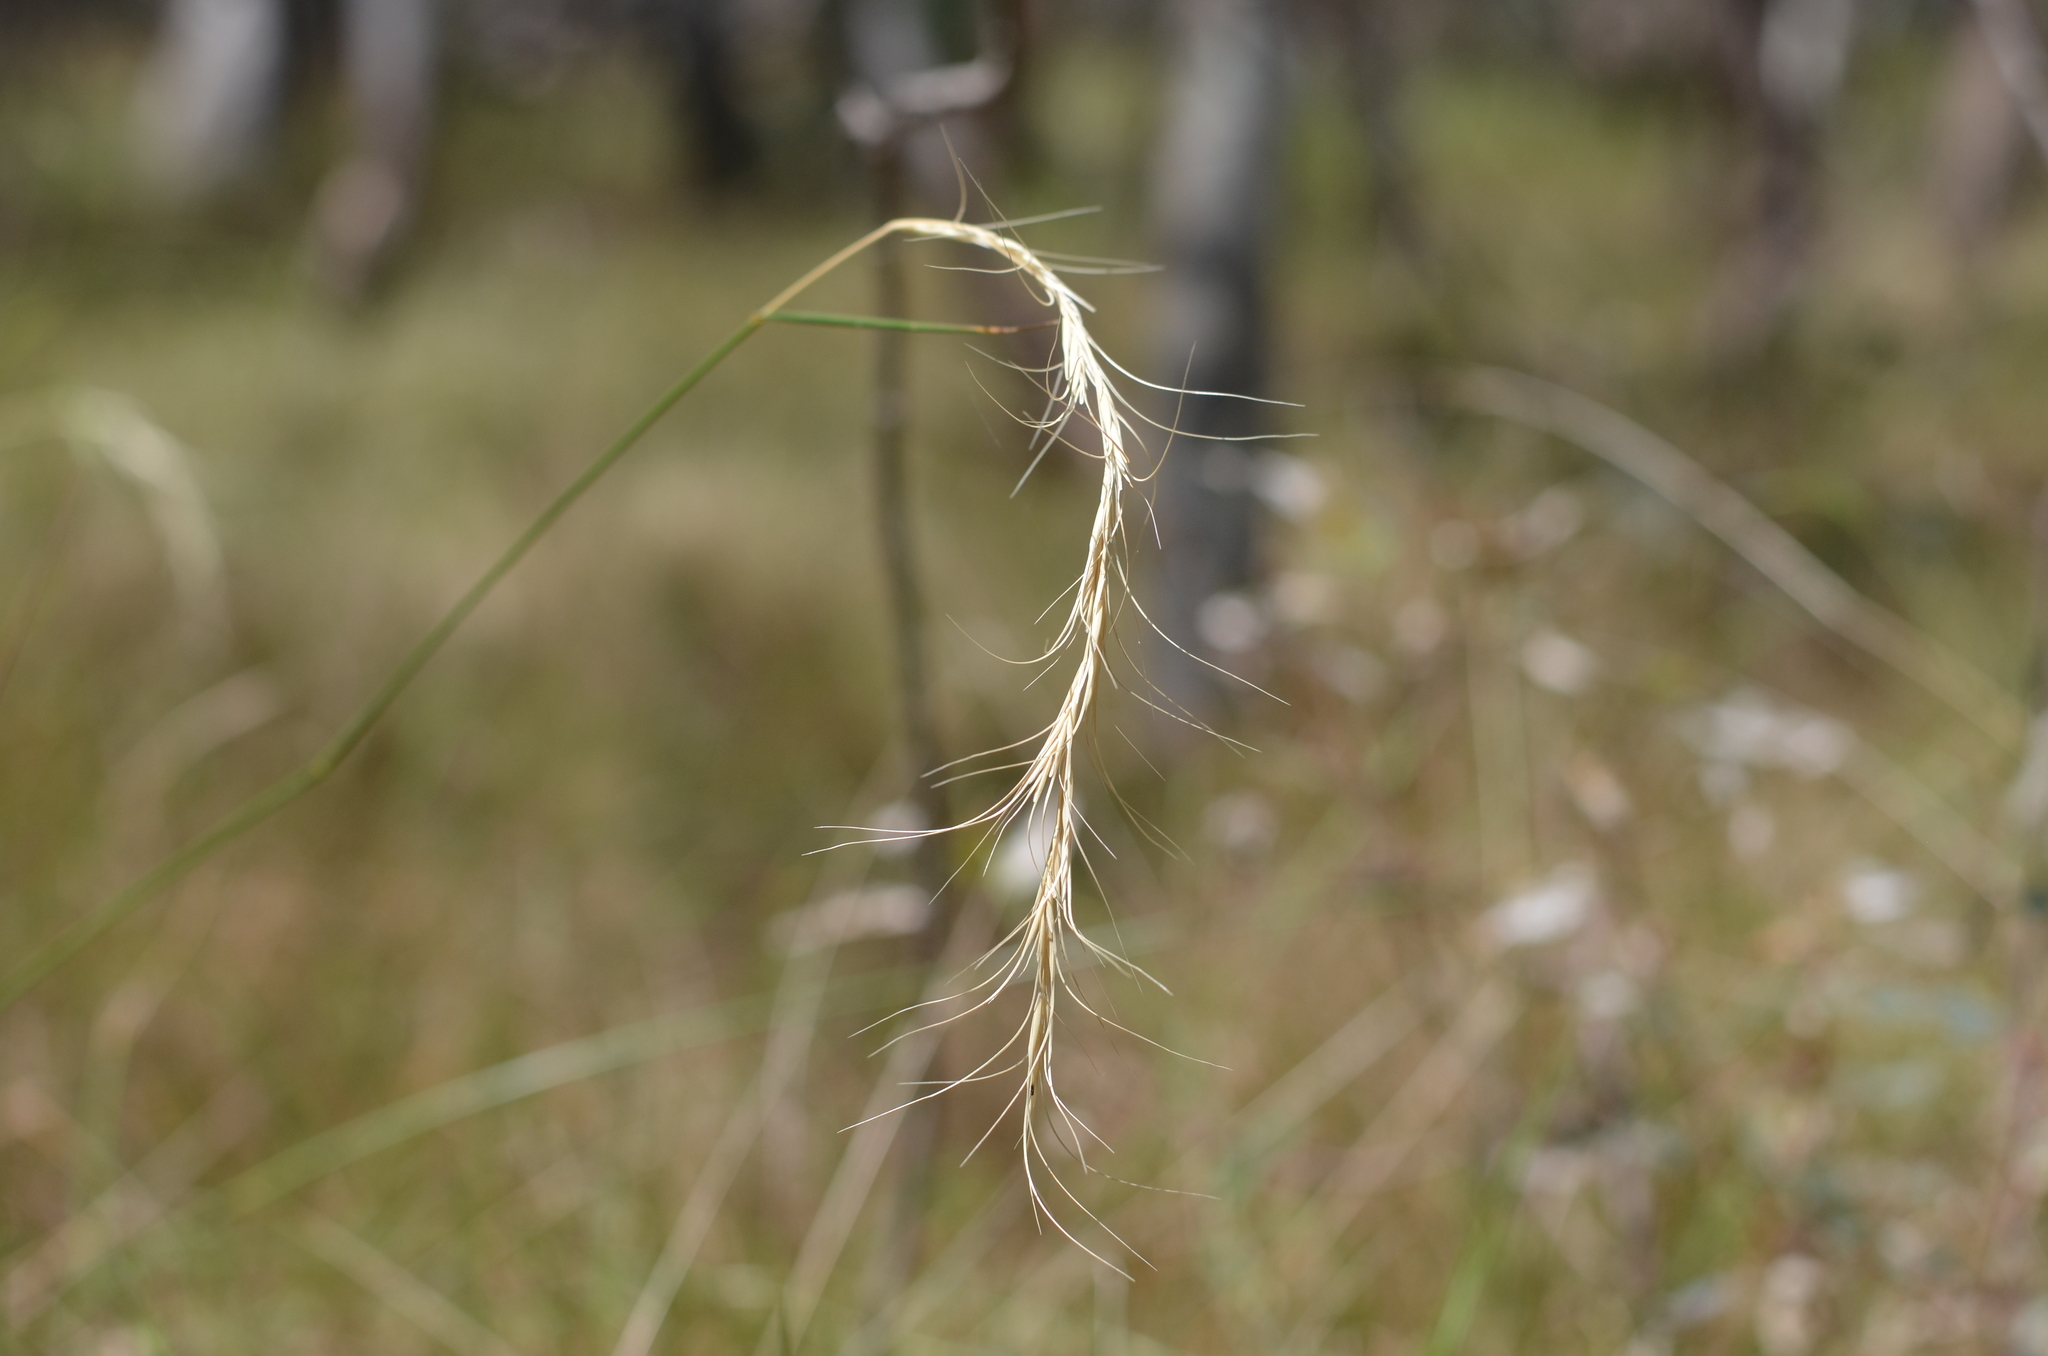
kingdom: Plantae
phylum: Tracheophyta
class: Liliopsida
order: Poales
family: Poaceae
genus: Anthosachne
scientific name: Anthosachne scabra
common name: Common wheatgrass
